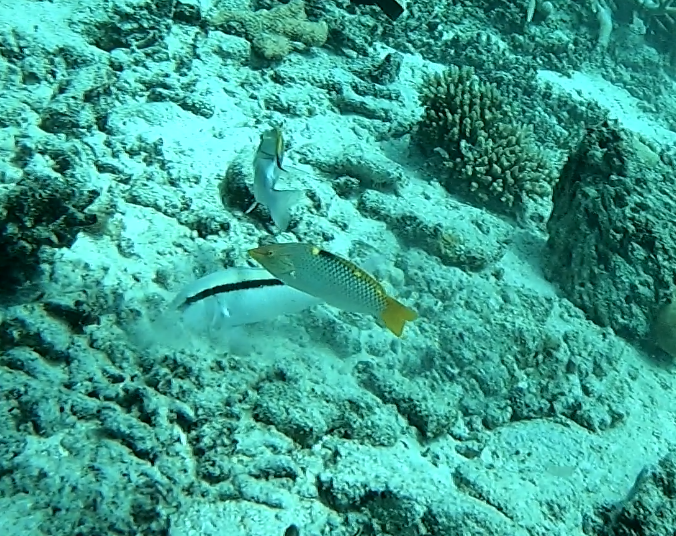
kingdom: Animalia
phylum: Chordata
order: Perciformes
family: Labridae
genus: Halichoeres
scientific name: Halichoeres hortulanus
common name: Checkerboard wrasse
